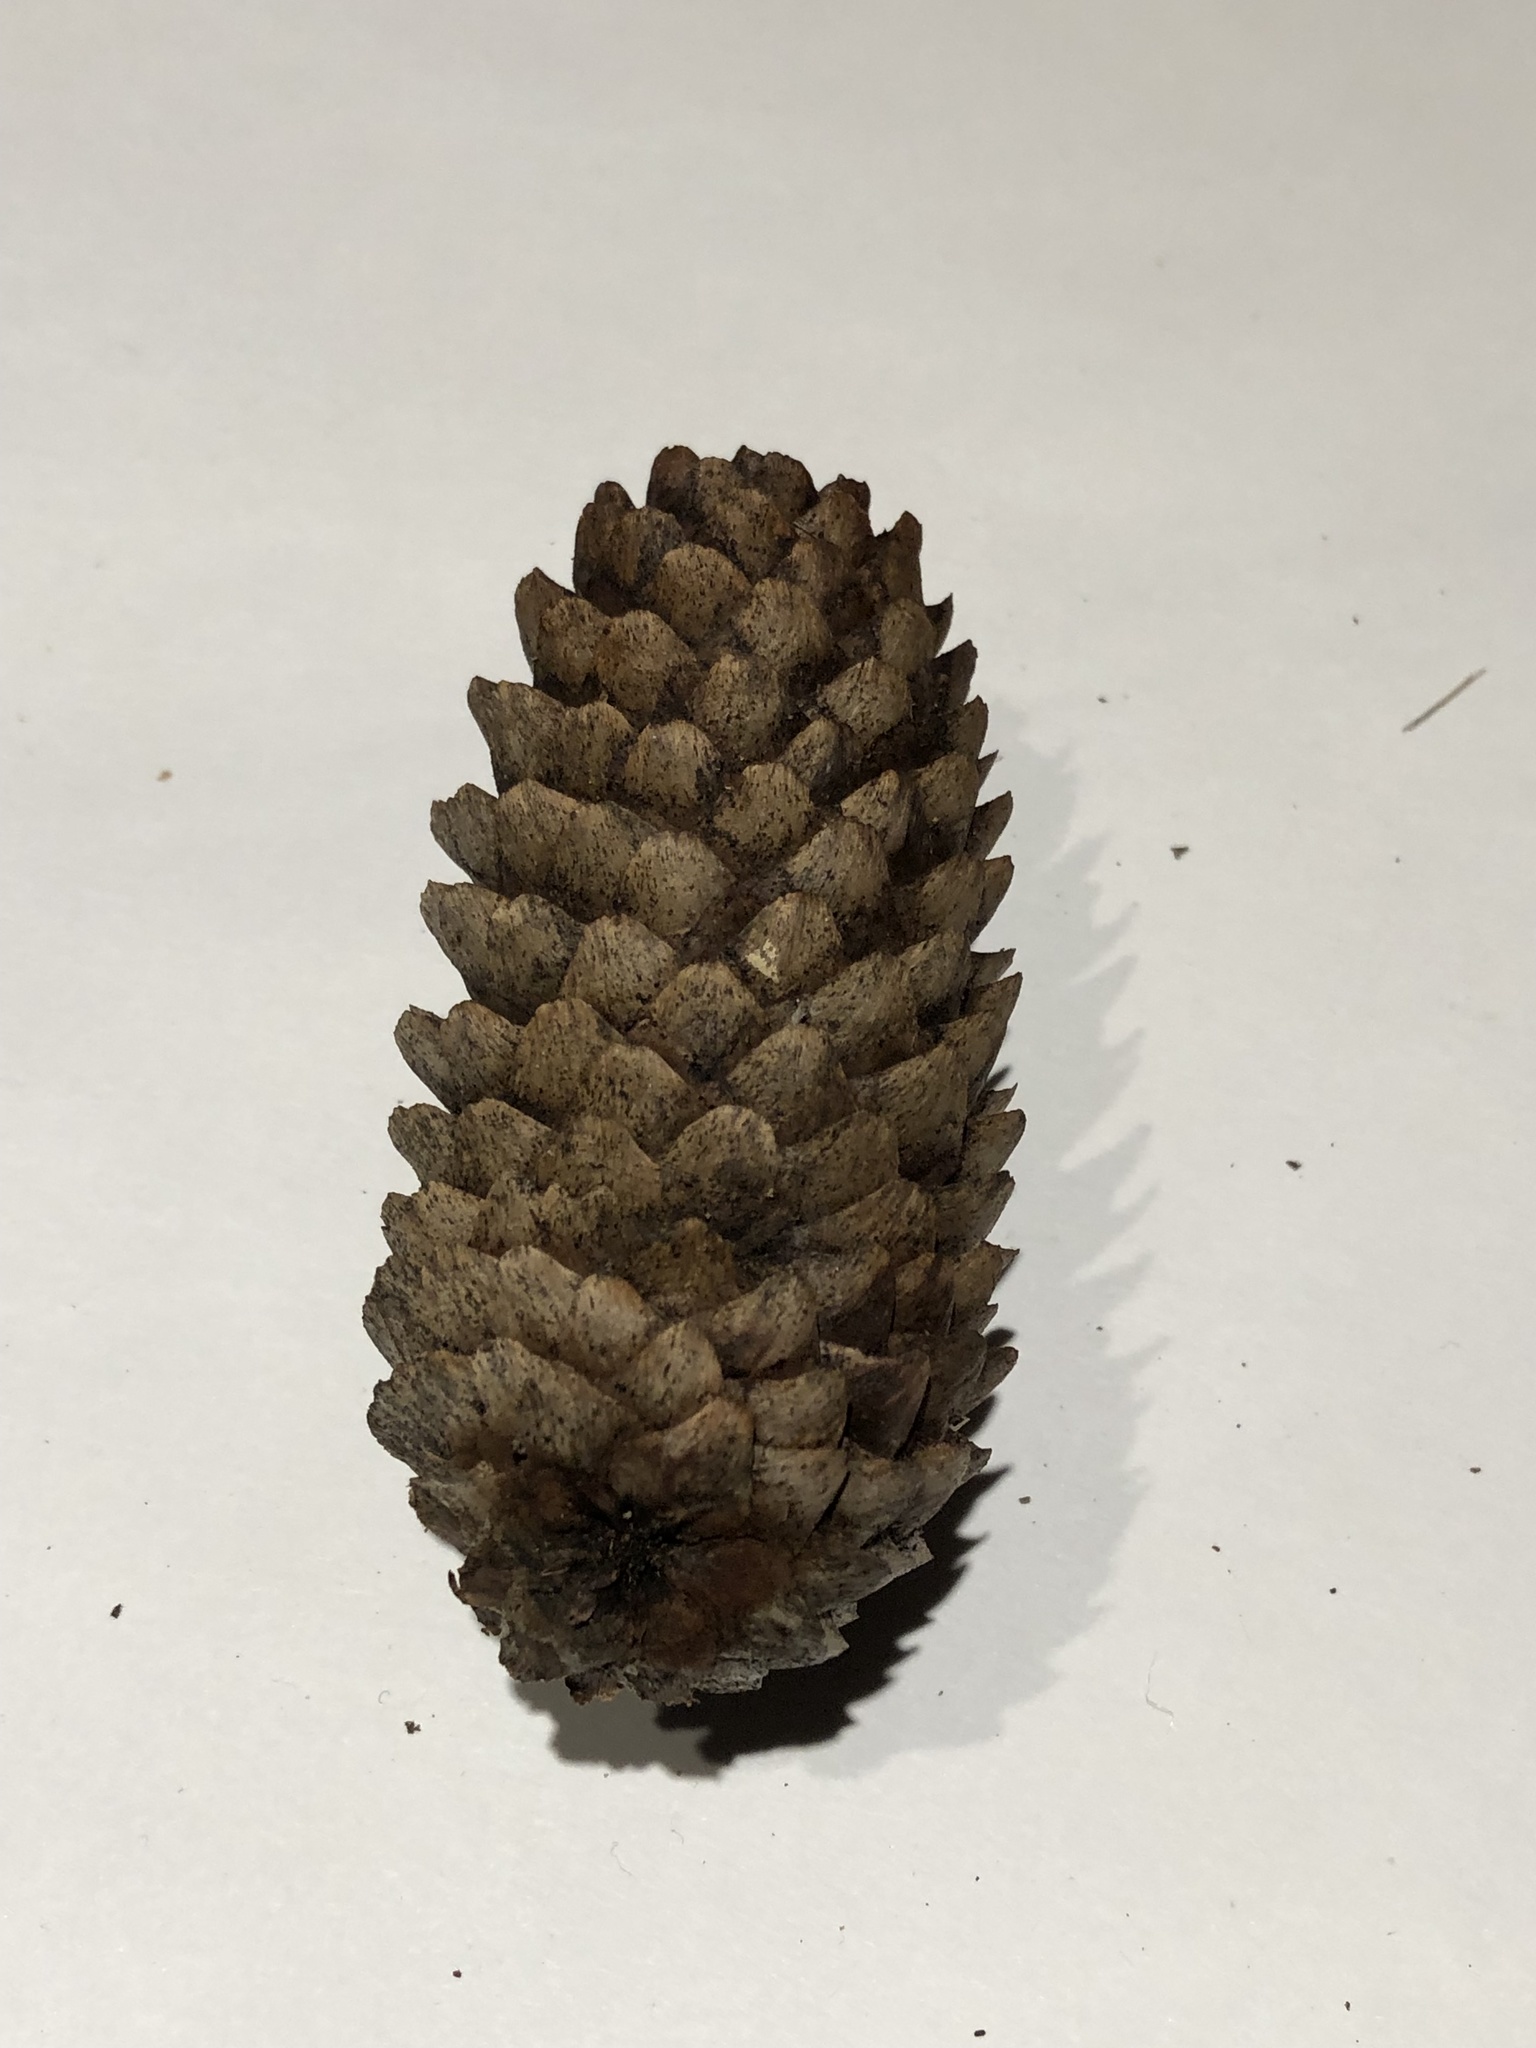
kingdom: Plantae
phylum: Tracheophyta
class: Pinopsida
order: Pinales
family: Pinaceae
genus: Picea
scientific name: Picea abies
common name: Norway spruce
